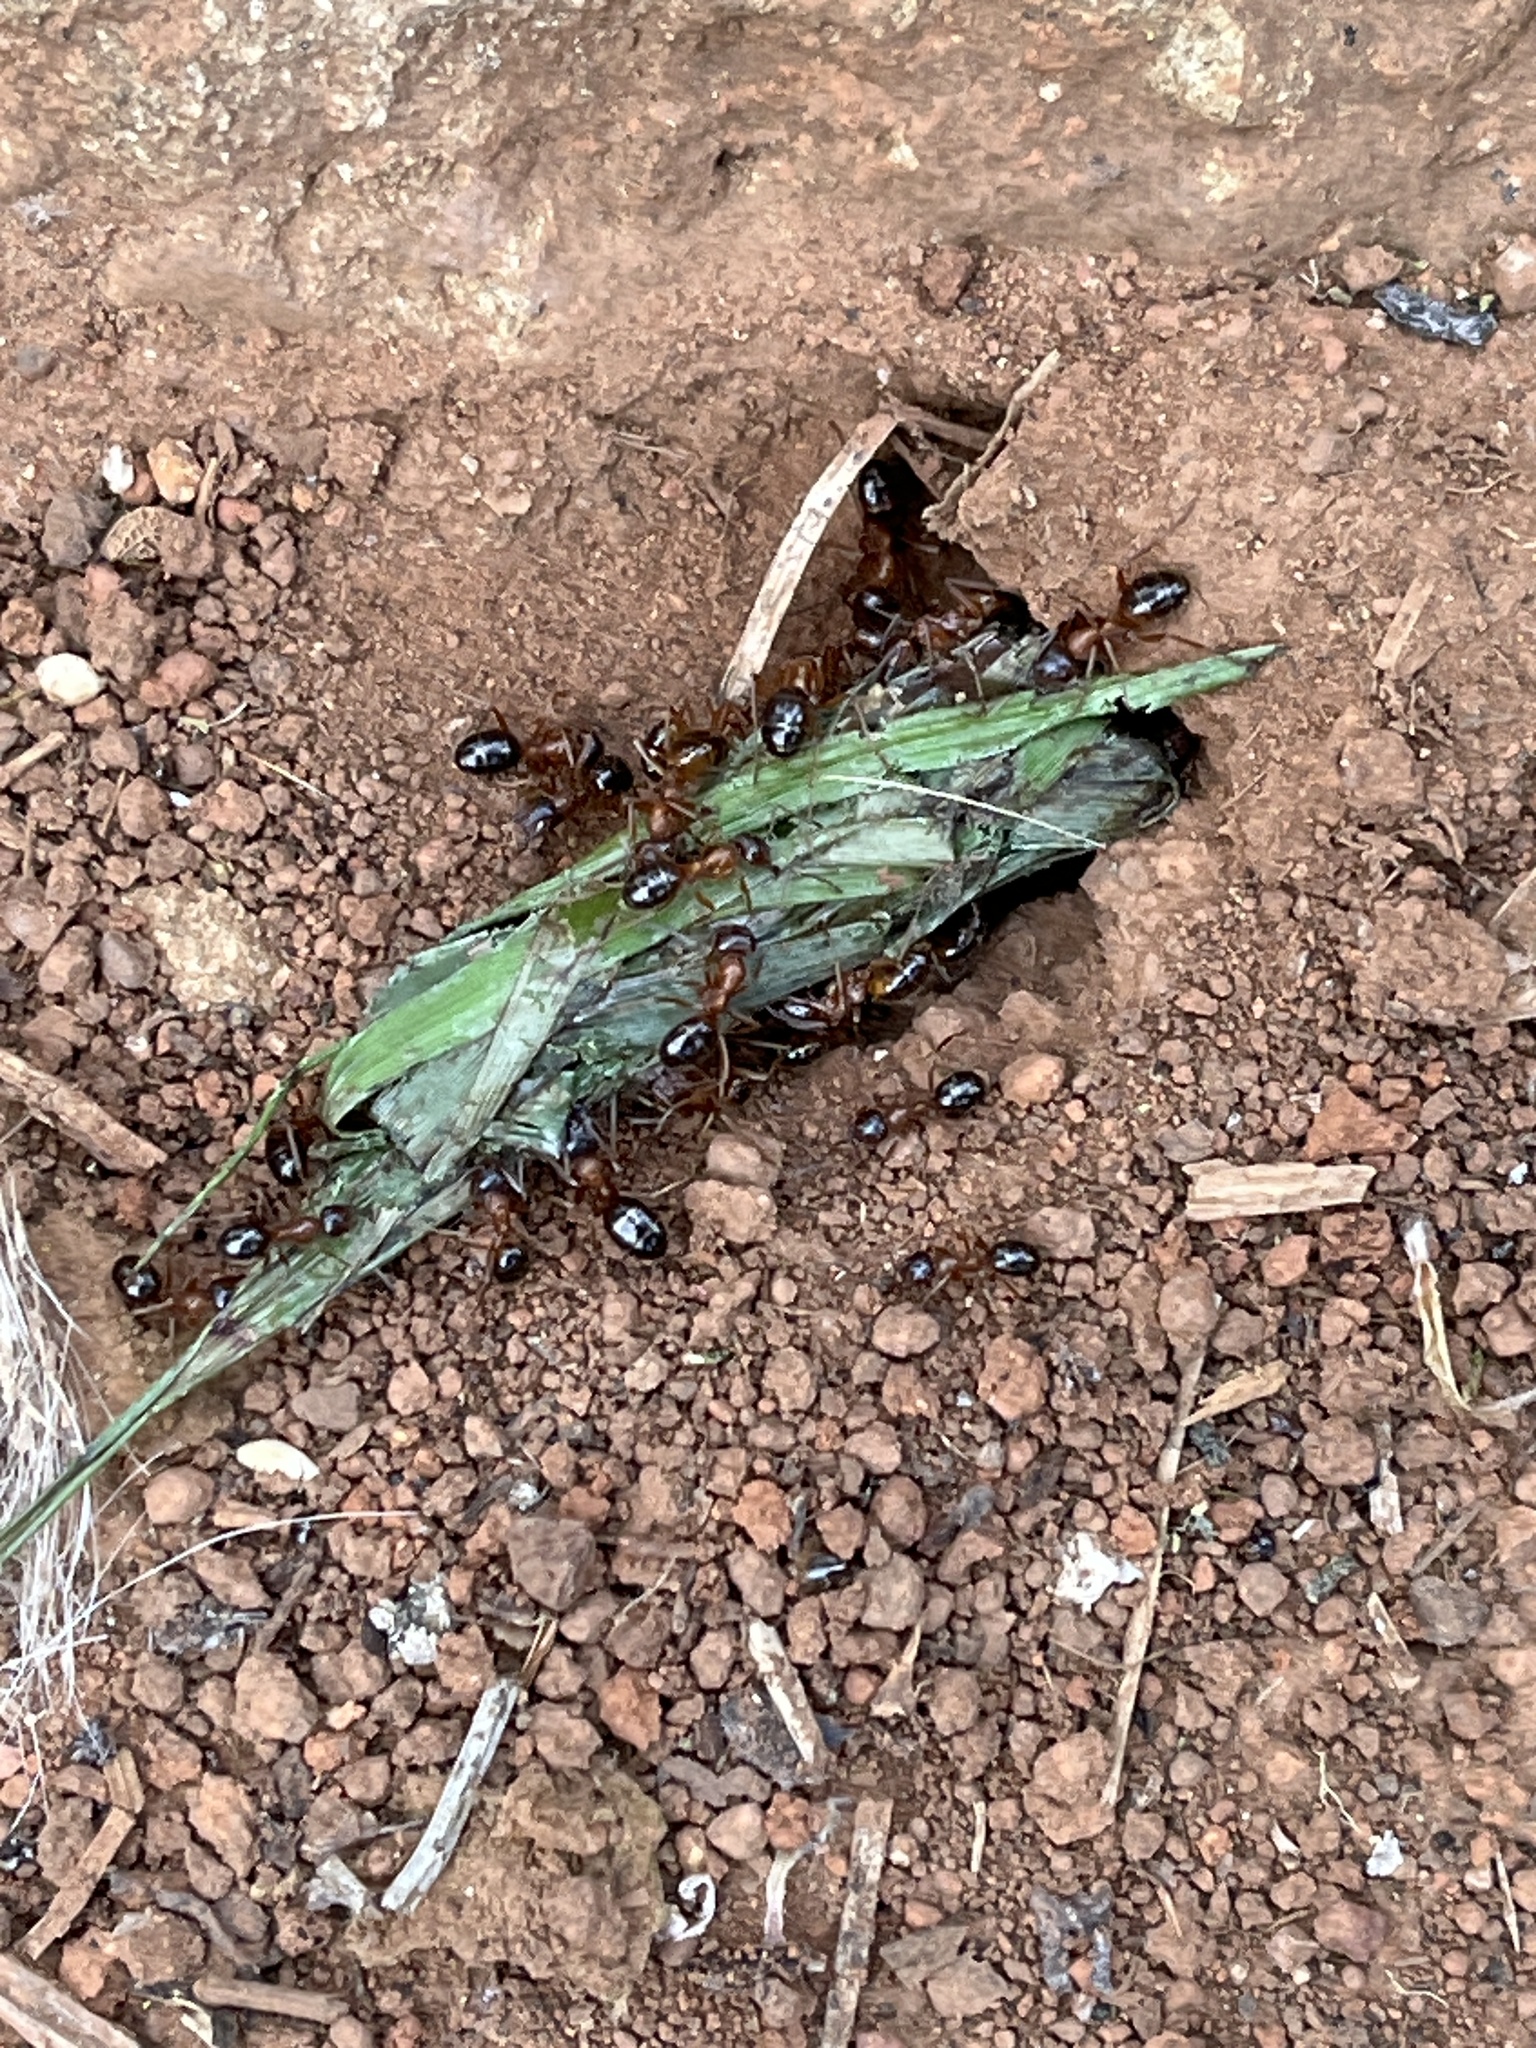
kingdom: Animalia
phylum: Arthropoda
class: Insecta
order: Hymenoptera
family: Formicidae
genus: Formica
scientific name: Formica subpolita
